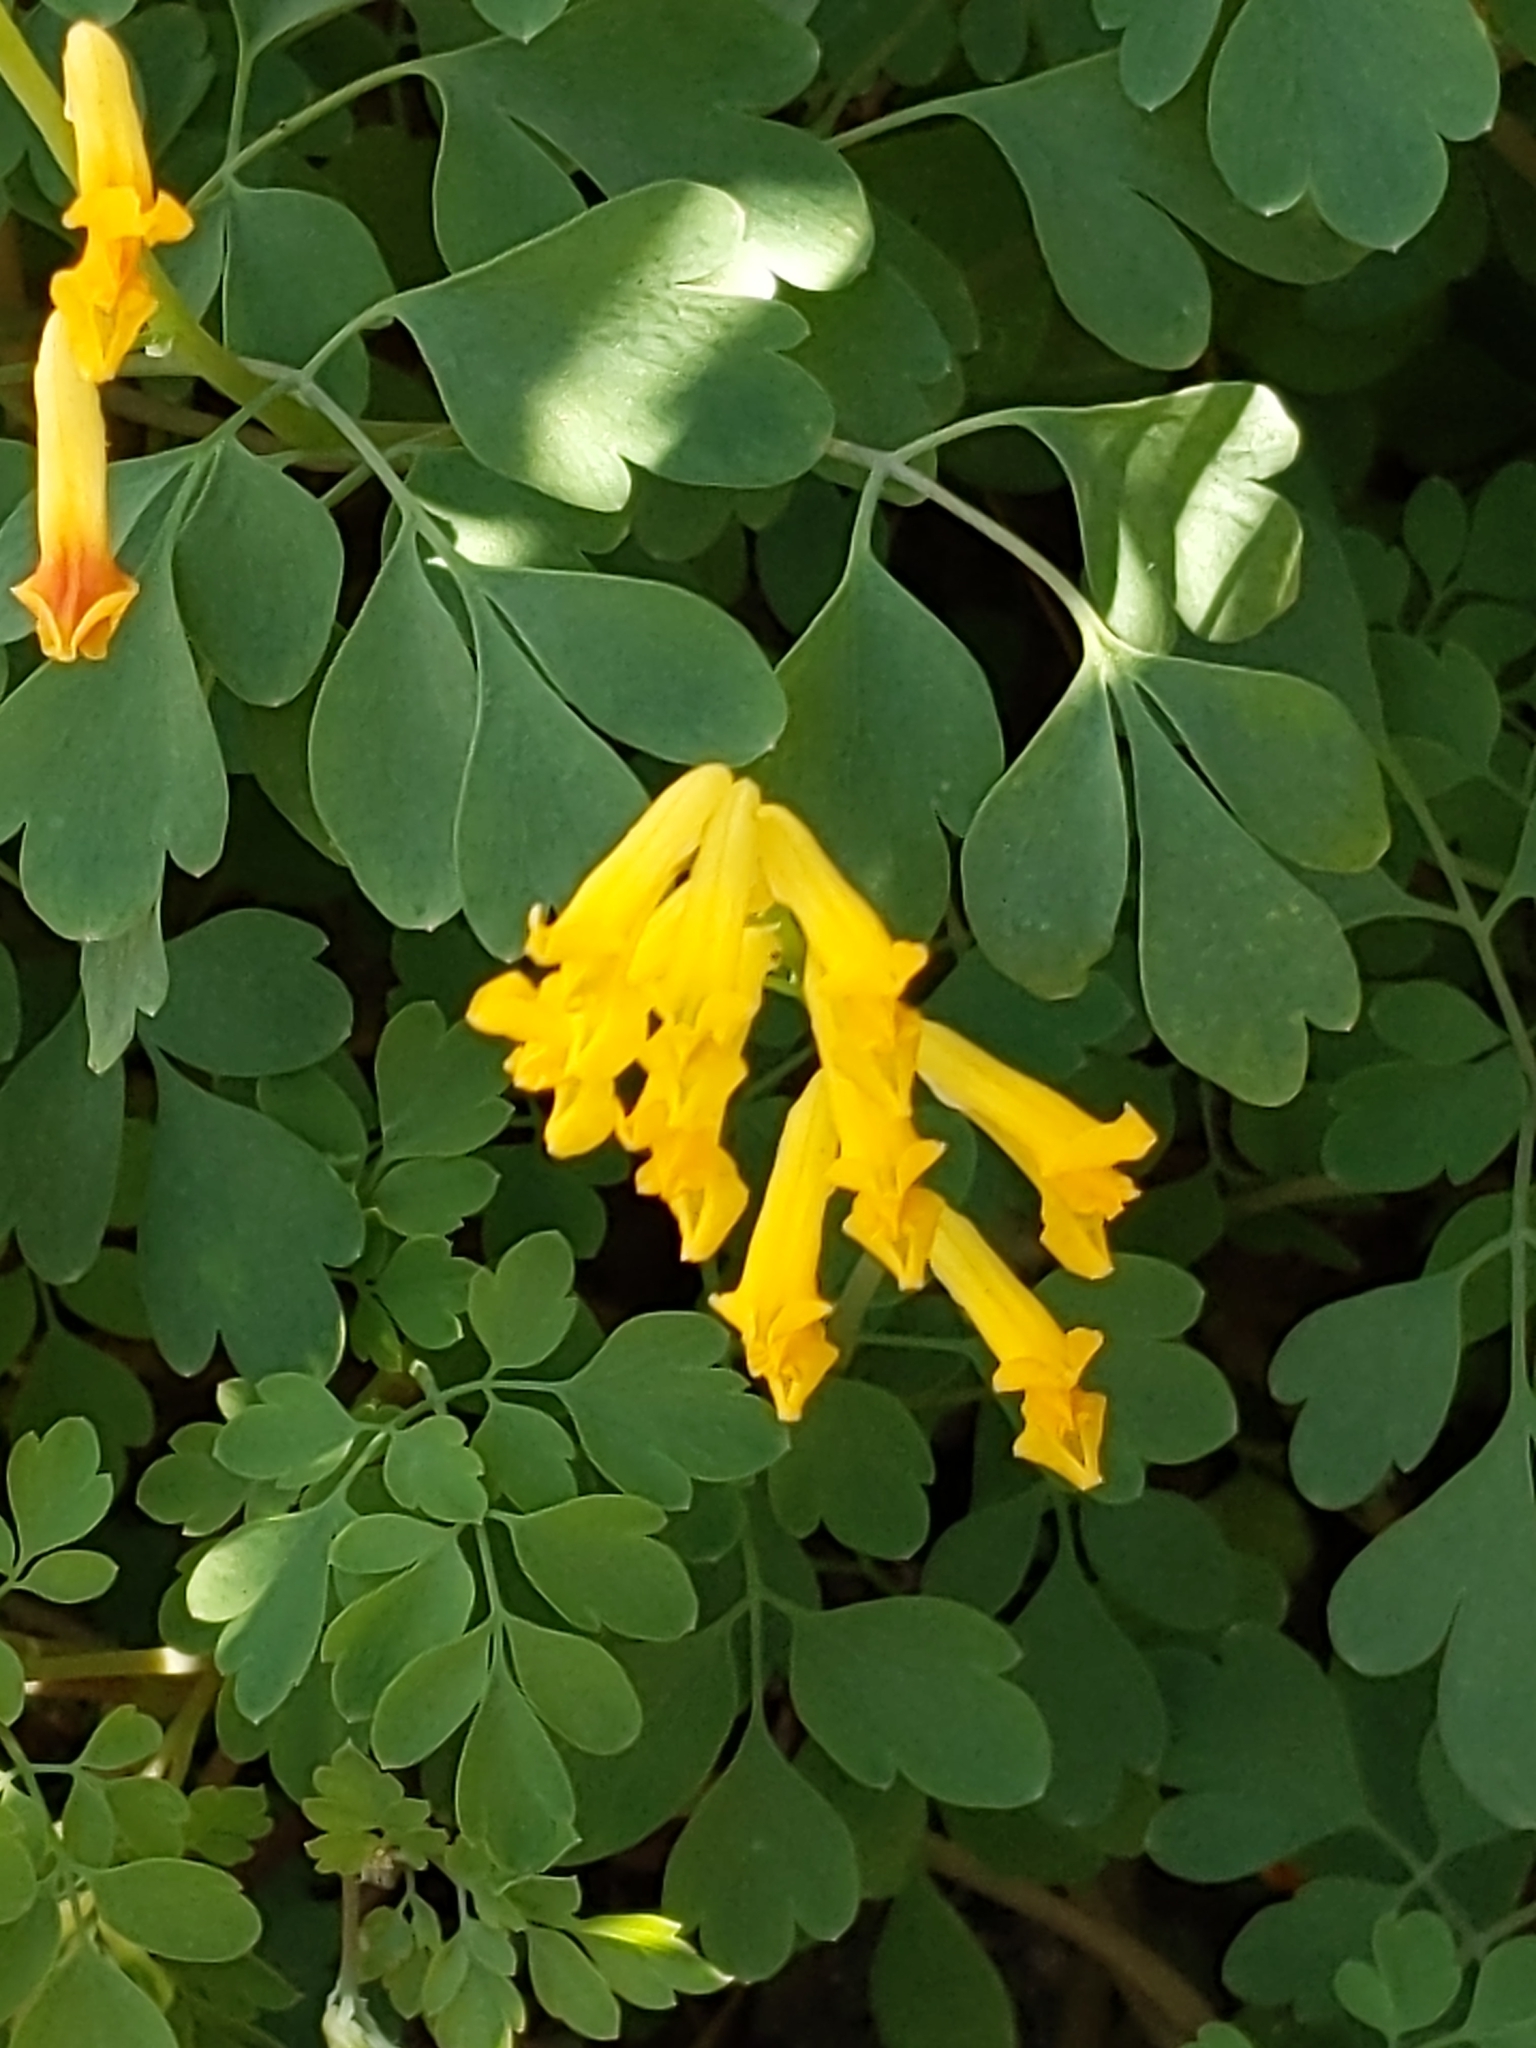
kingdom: Plantae
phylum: Tracheophyta
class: Magnoliopsida
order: Ranunculales
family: Papaveraceae
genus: Pseudofumaria
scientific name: Pseudofumaria lutea
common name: Yellow corydalis
